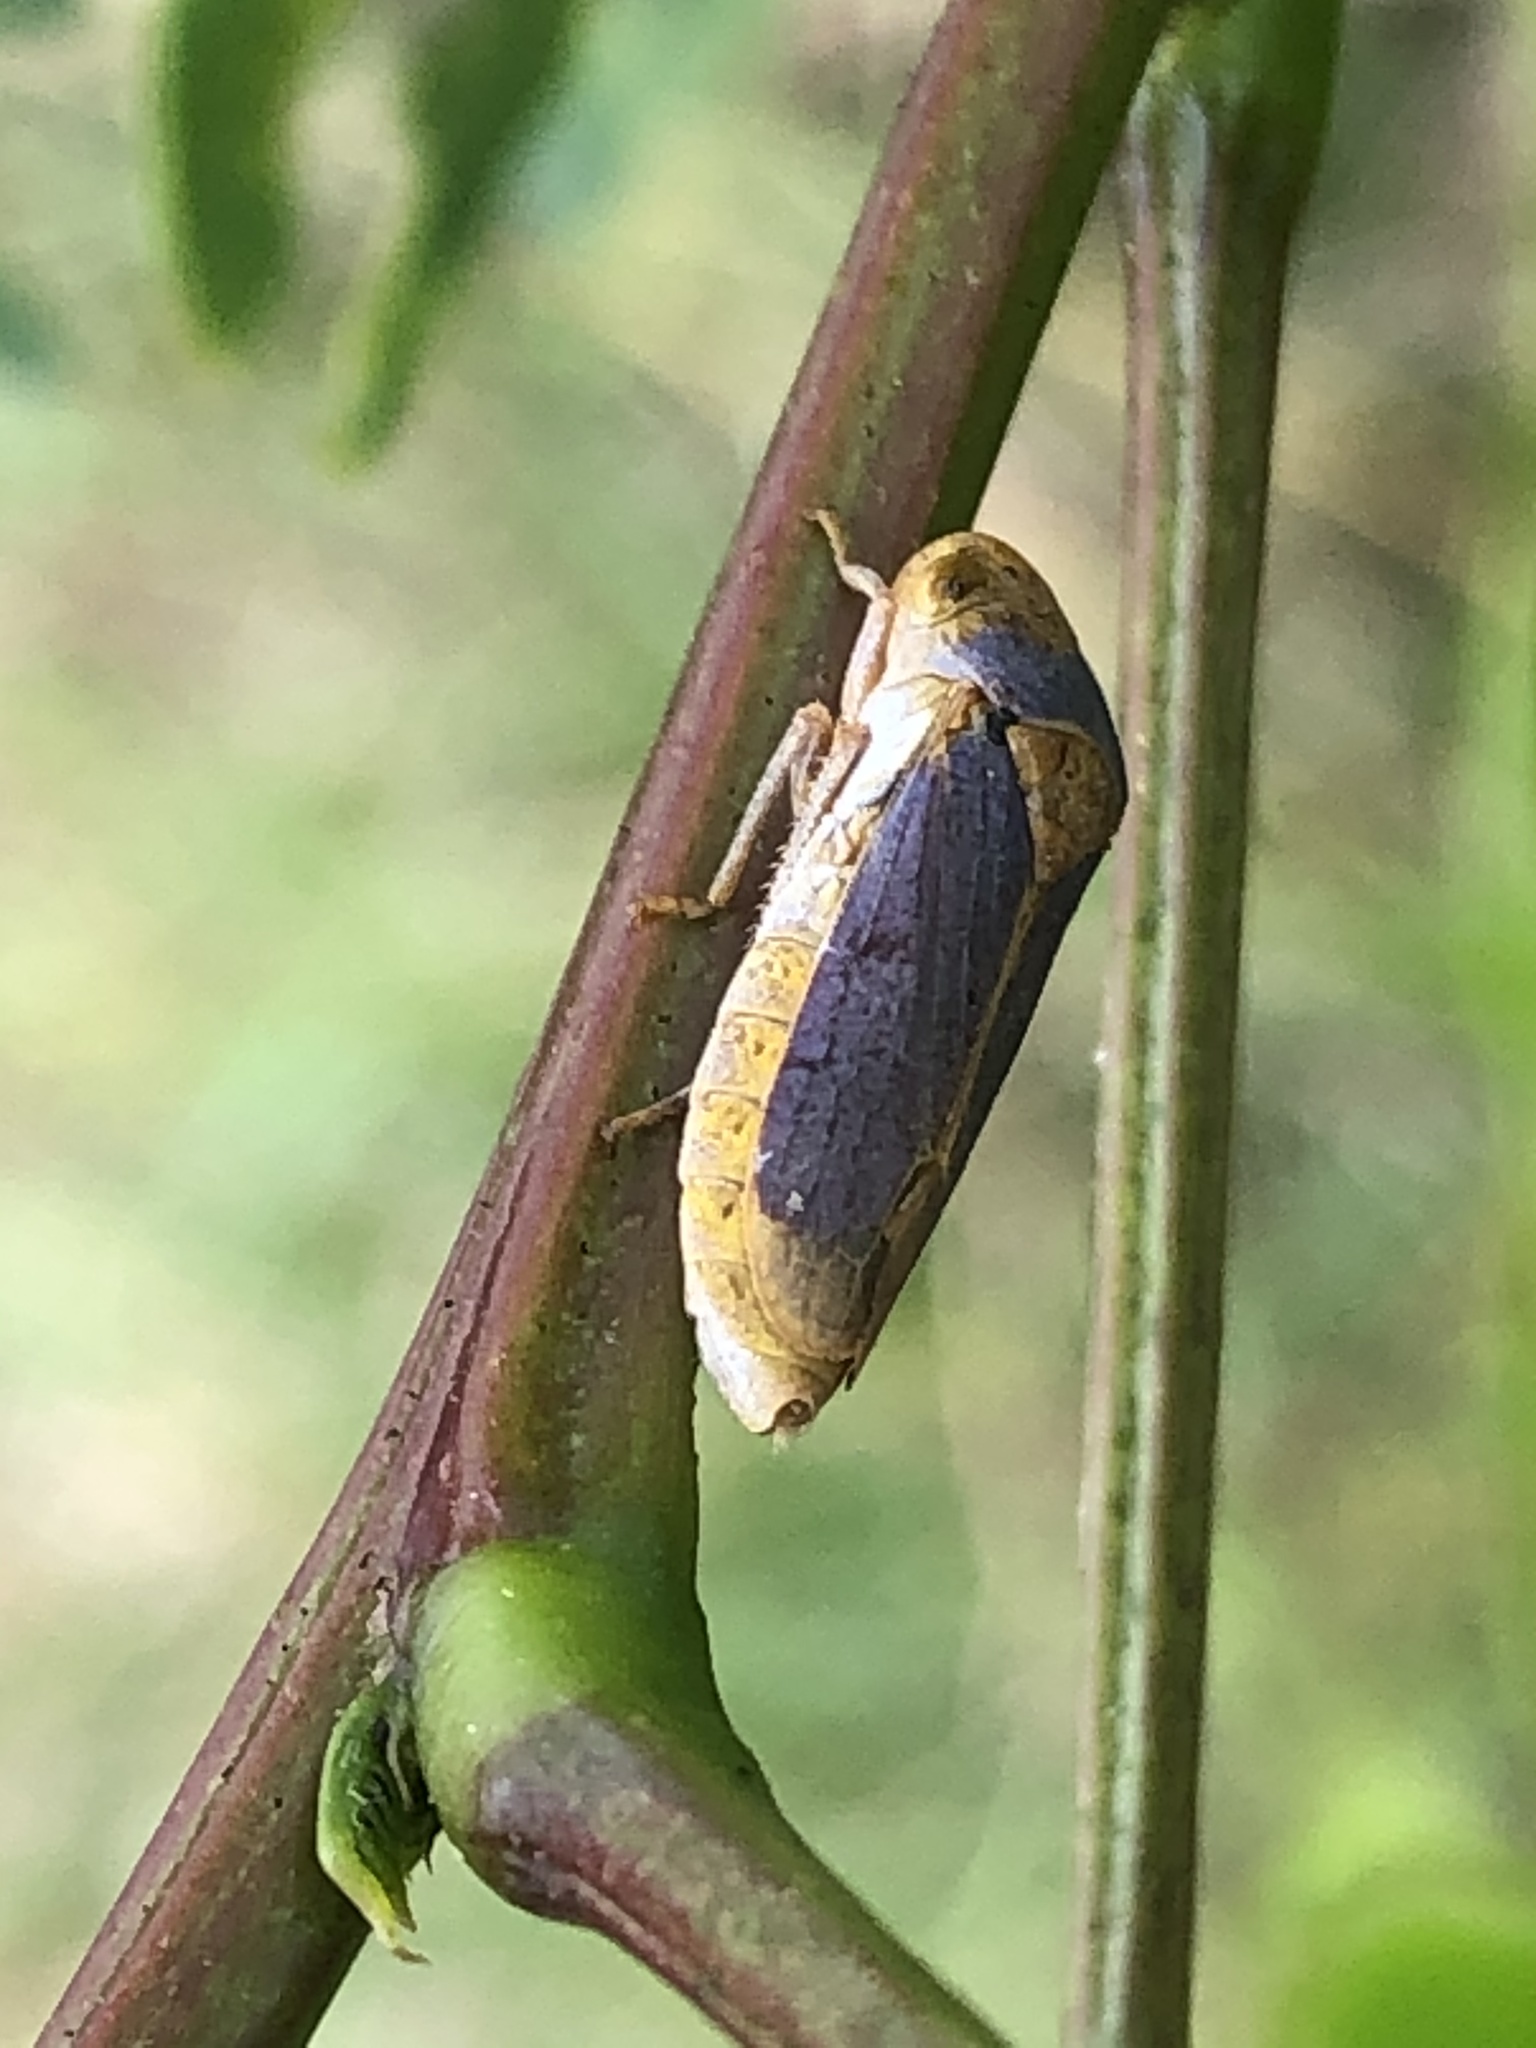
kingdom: Animalia
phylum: Arthropoda
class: Insecta
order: Hemiptera
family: Cicadellidae
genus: Oncometopia
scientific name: Oncometopia hamiltoni
